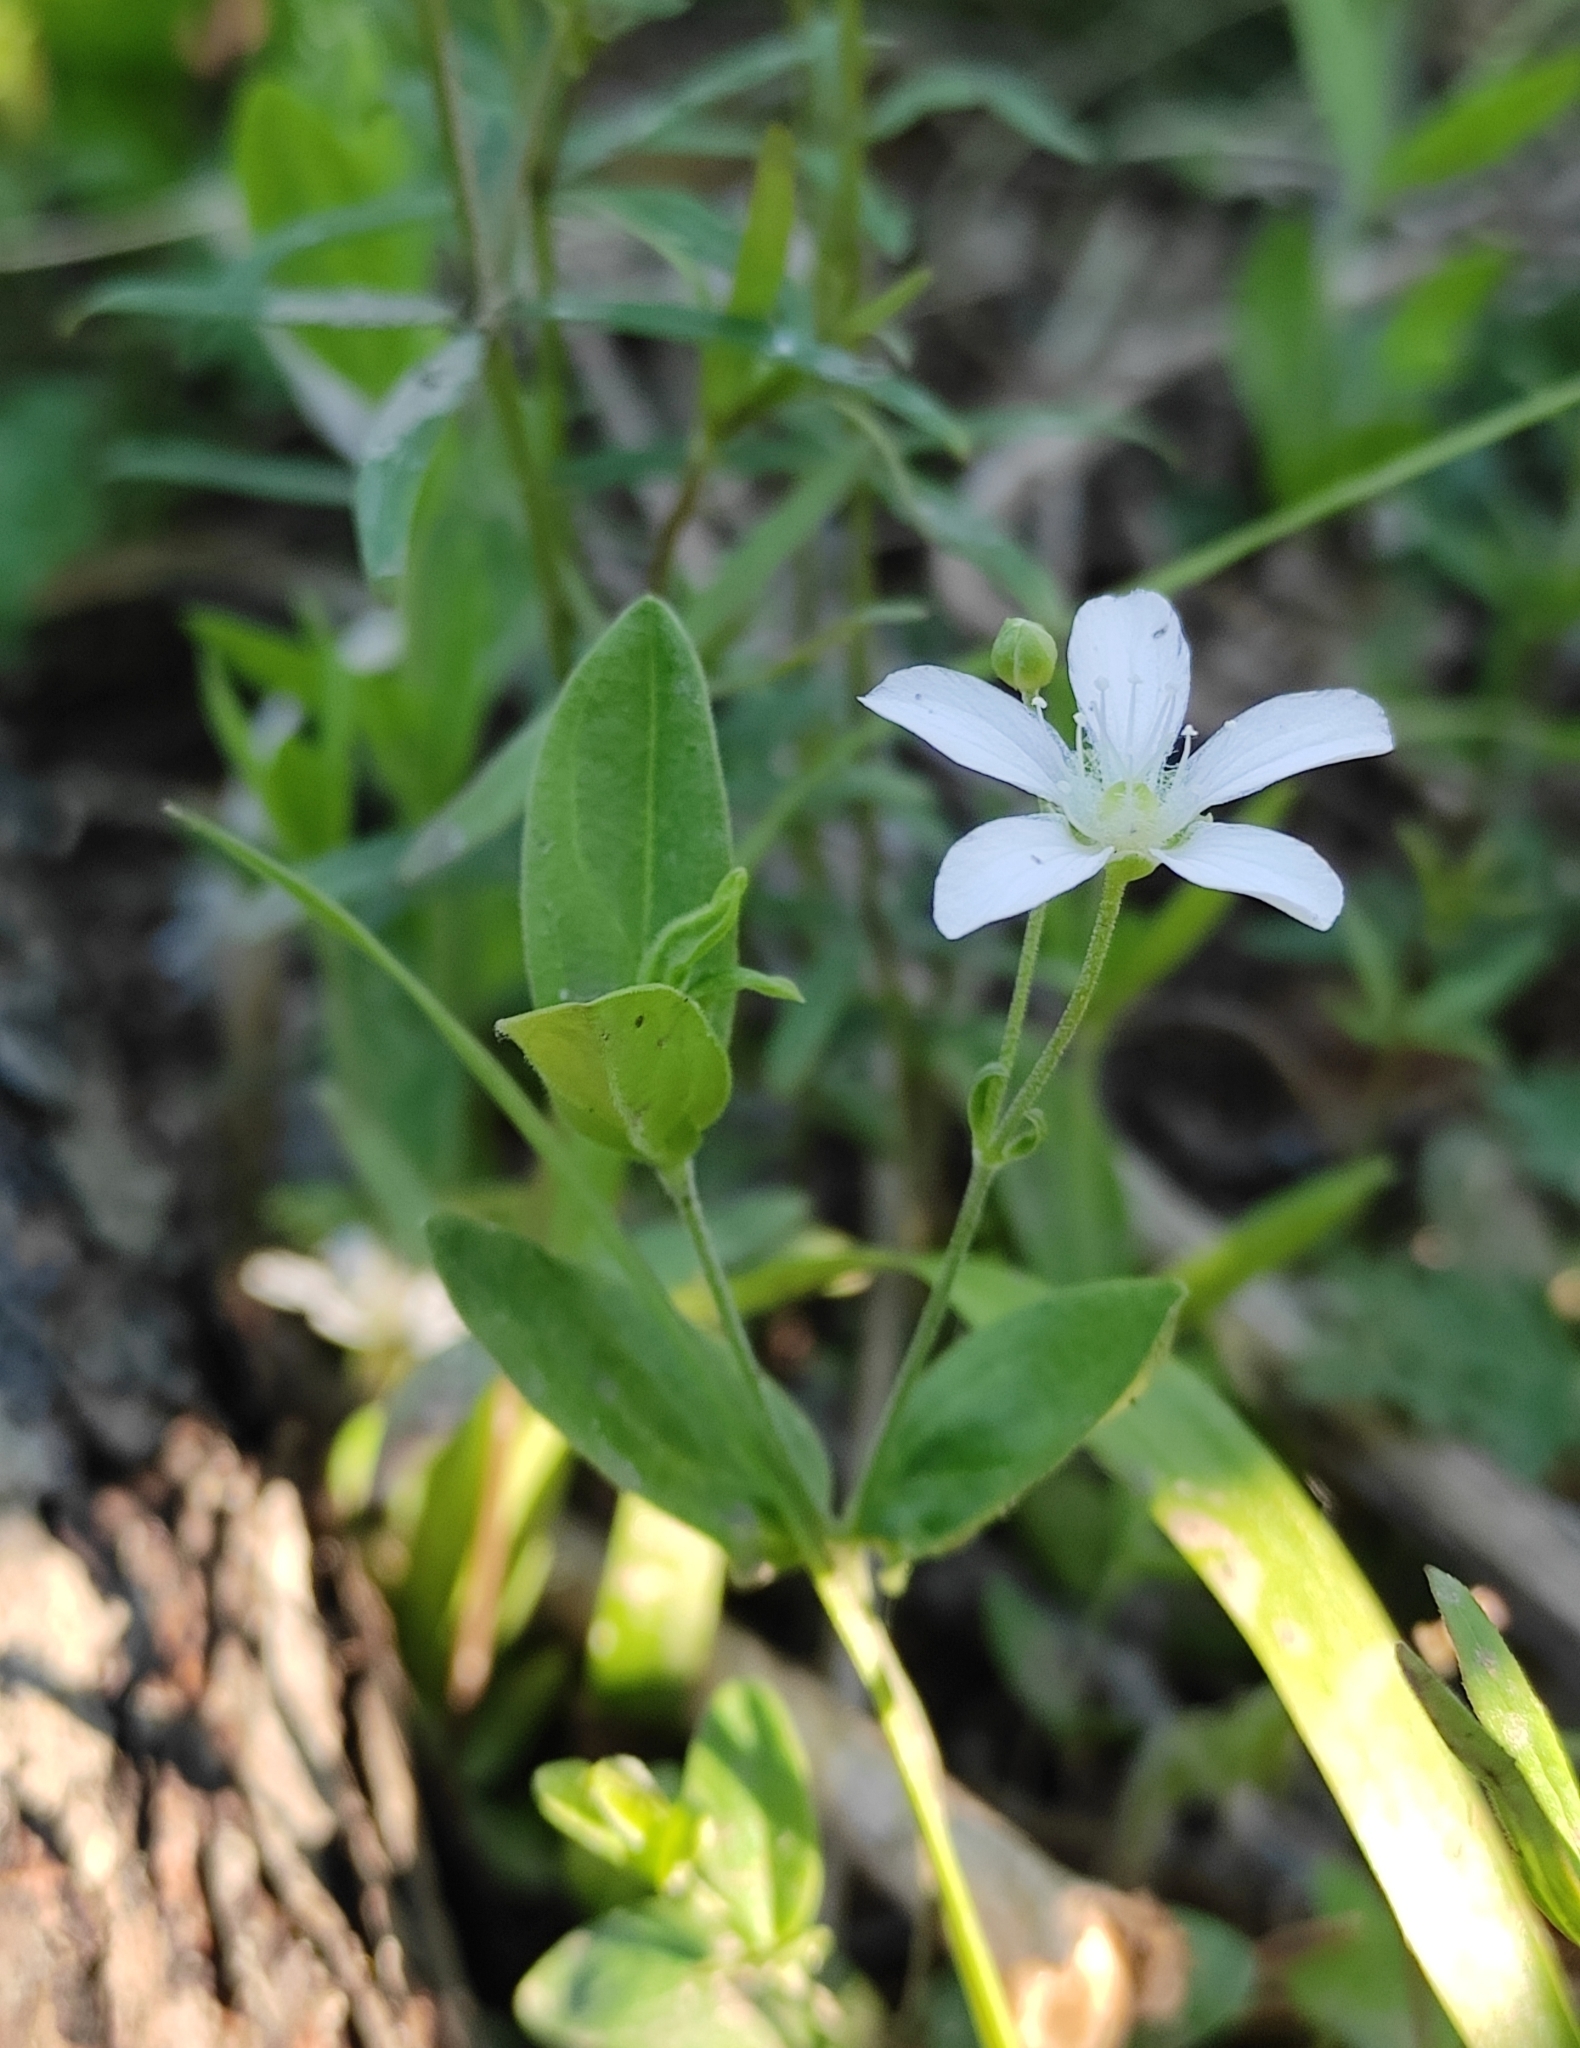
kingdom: Plantae
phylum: Tracheophyta
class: Magnoliopsida
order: Caryophyllales
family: Caryophyllaceae
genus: Moehringia
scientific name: Moehringia lateriflora
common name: Blunt-leaved sandwort
